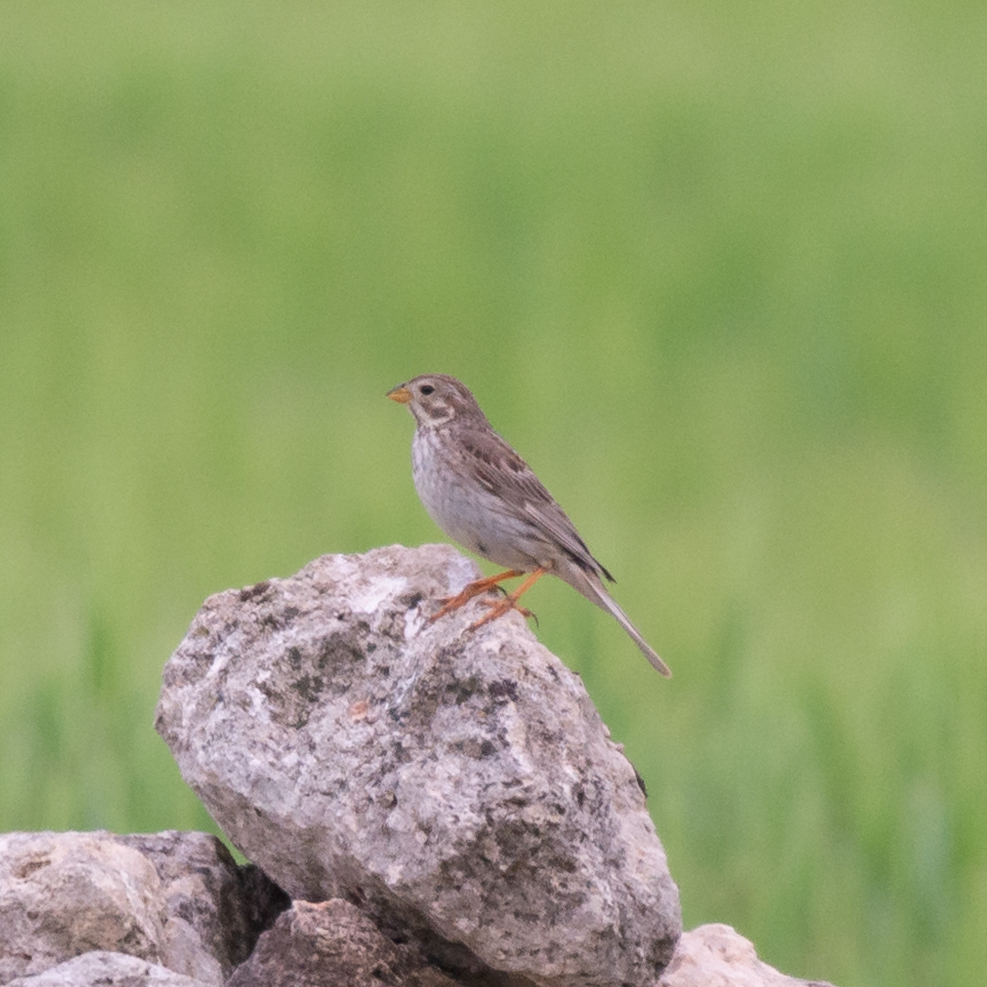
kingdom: Animalia
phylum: Chordata
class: Aves
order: Passeriformes
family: Emberizidae
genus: Emberiza
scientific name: Emberiza calandra
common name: Corn bunting
